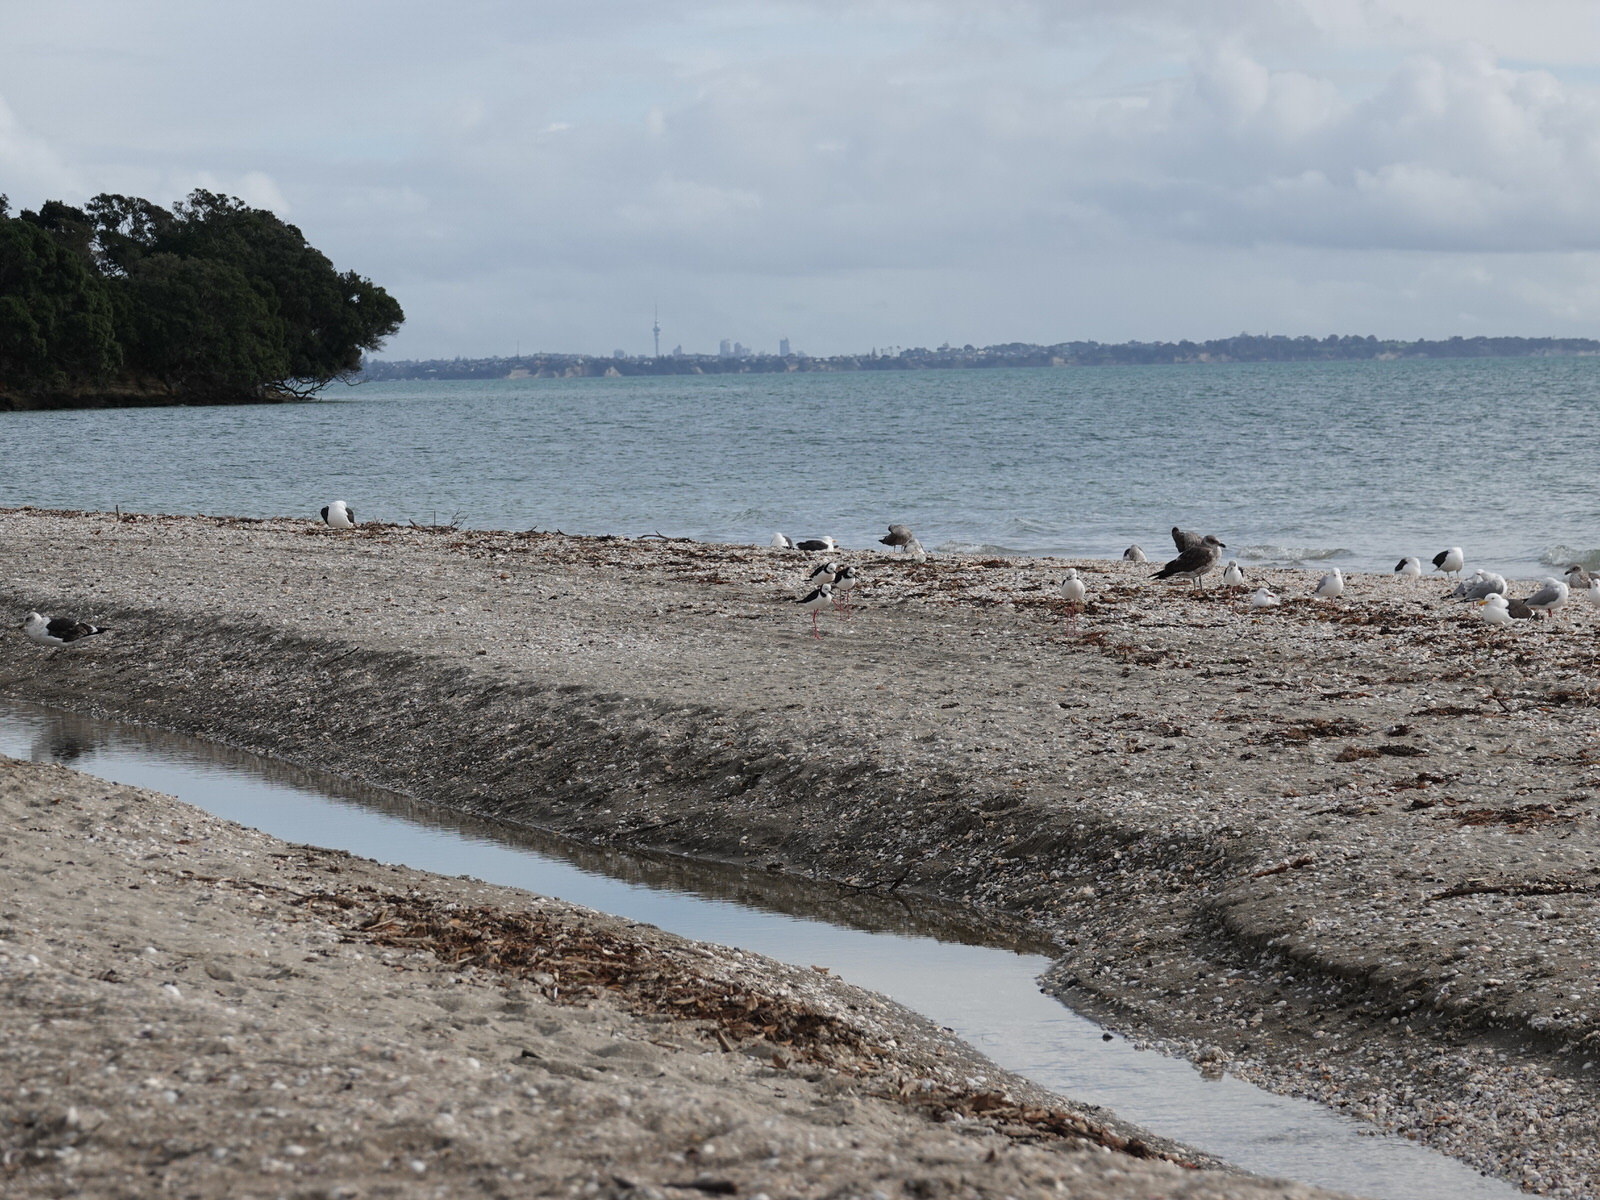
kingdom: Animalia
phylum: Chordata
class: Aves
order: Charadriiformes
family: Recurvirostridae
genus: Himantopus
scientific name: Himantopus leucocephalus
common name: White-headed stilt
